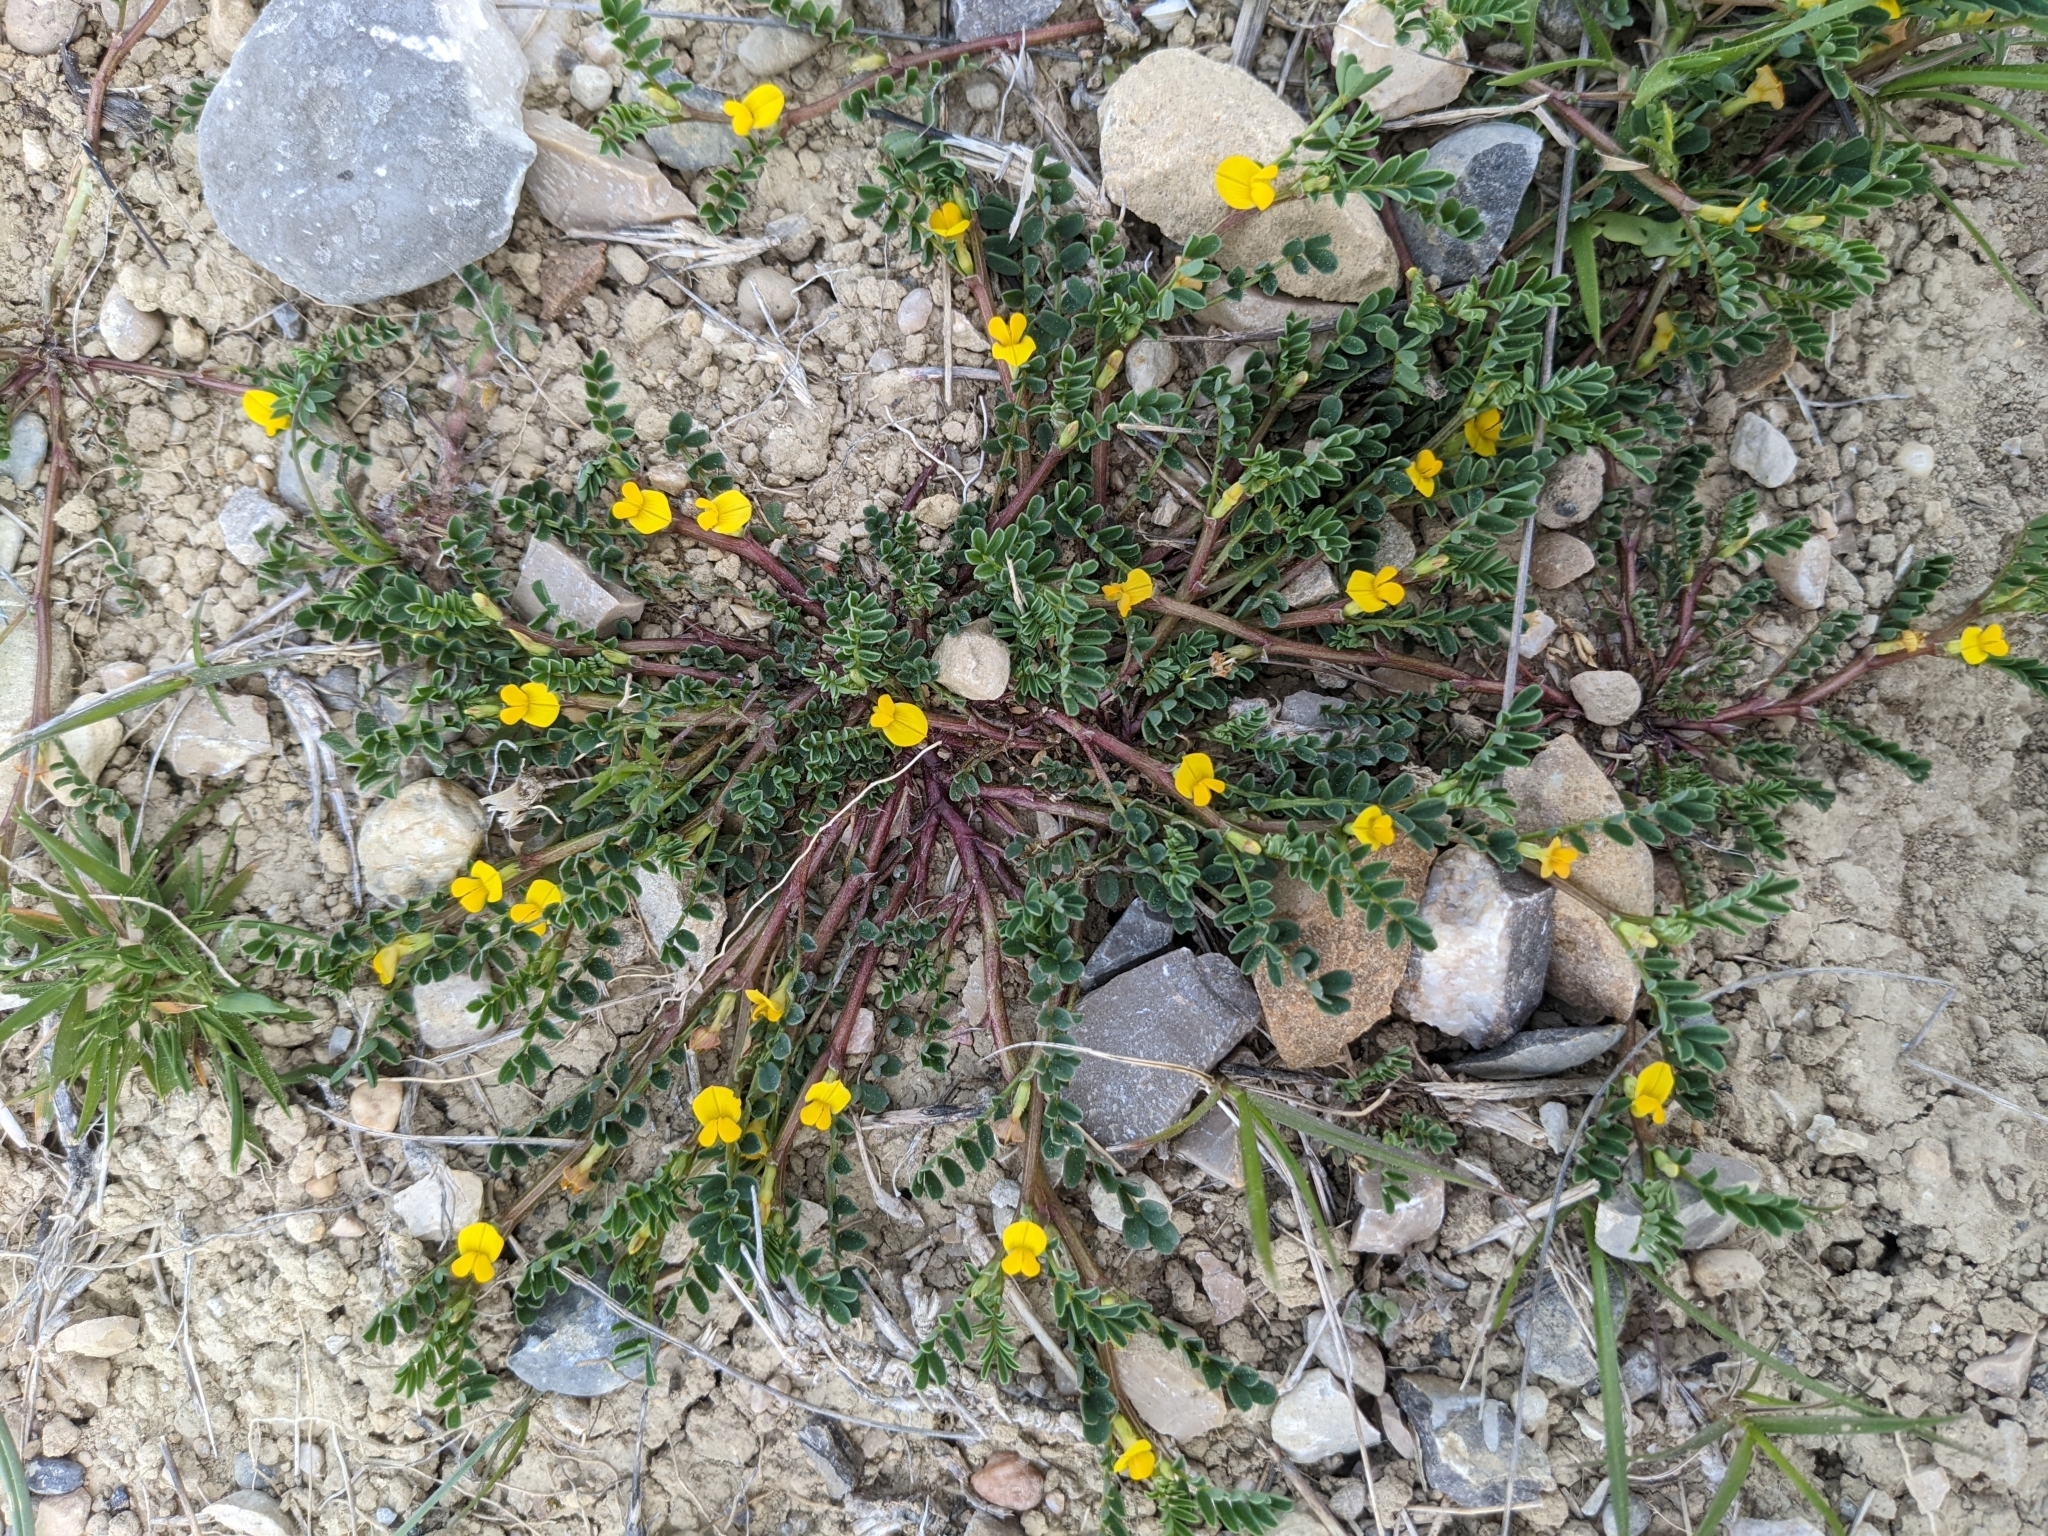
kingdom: Plantae
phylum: Tracheophyta
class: Magnoliopsida
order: Fabales
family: Fabaceae
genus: Hippocrepis
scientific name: Hippocrepis biflora
